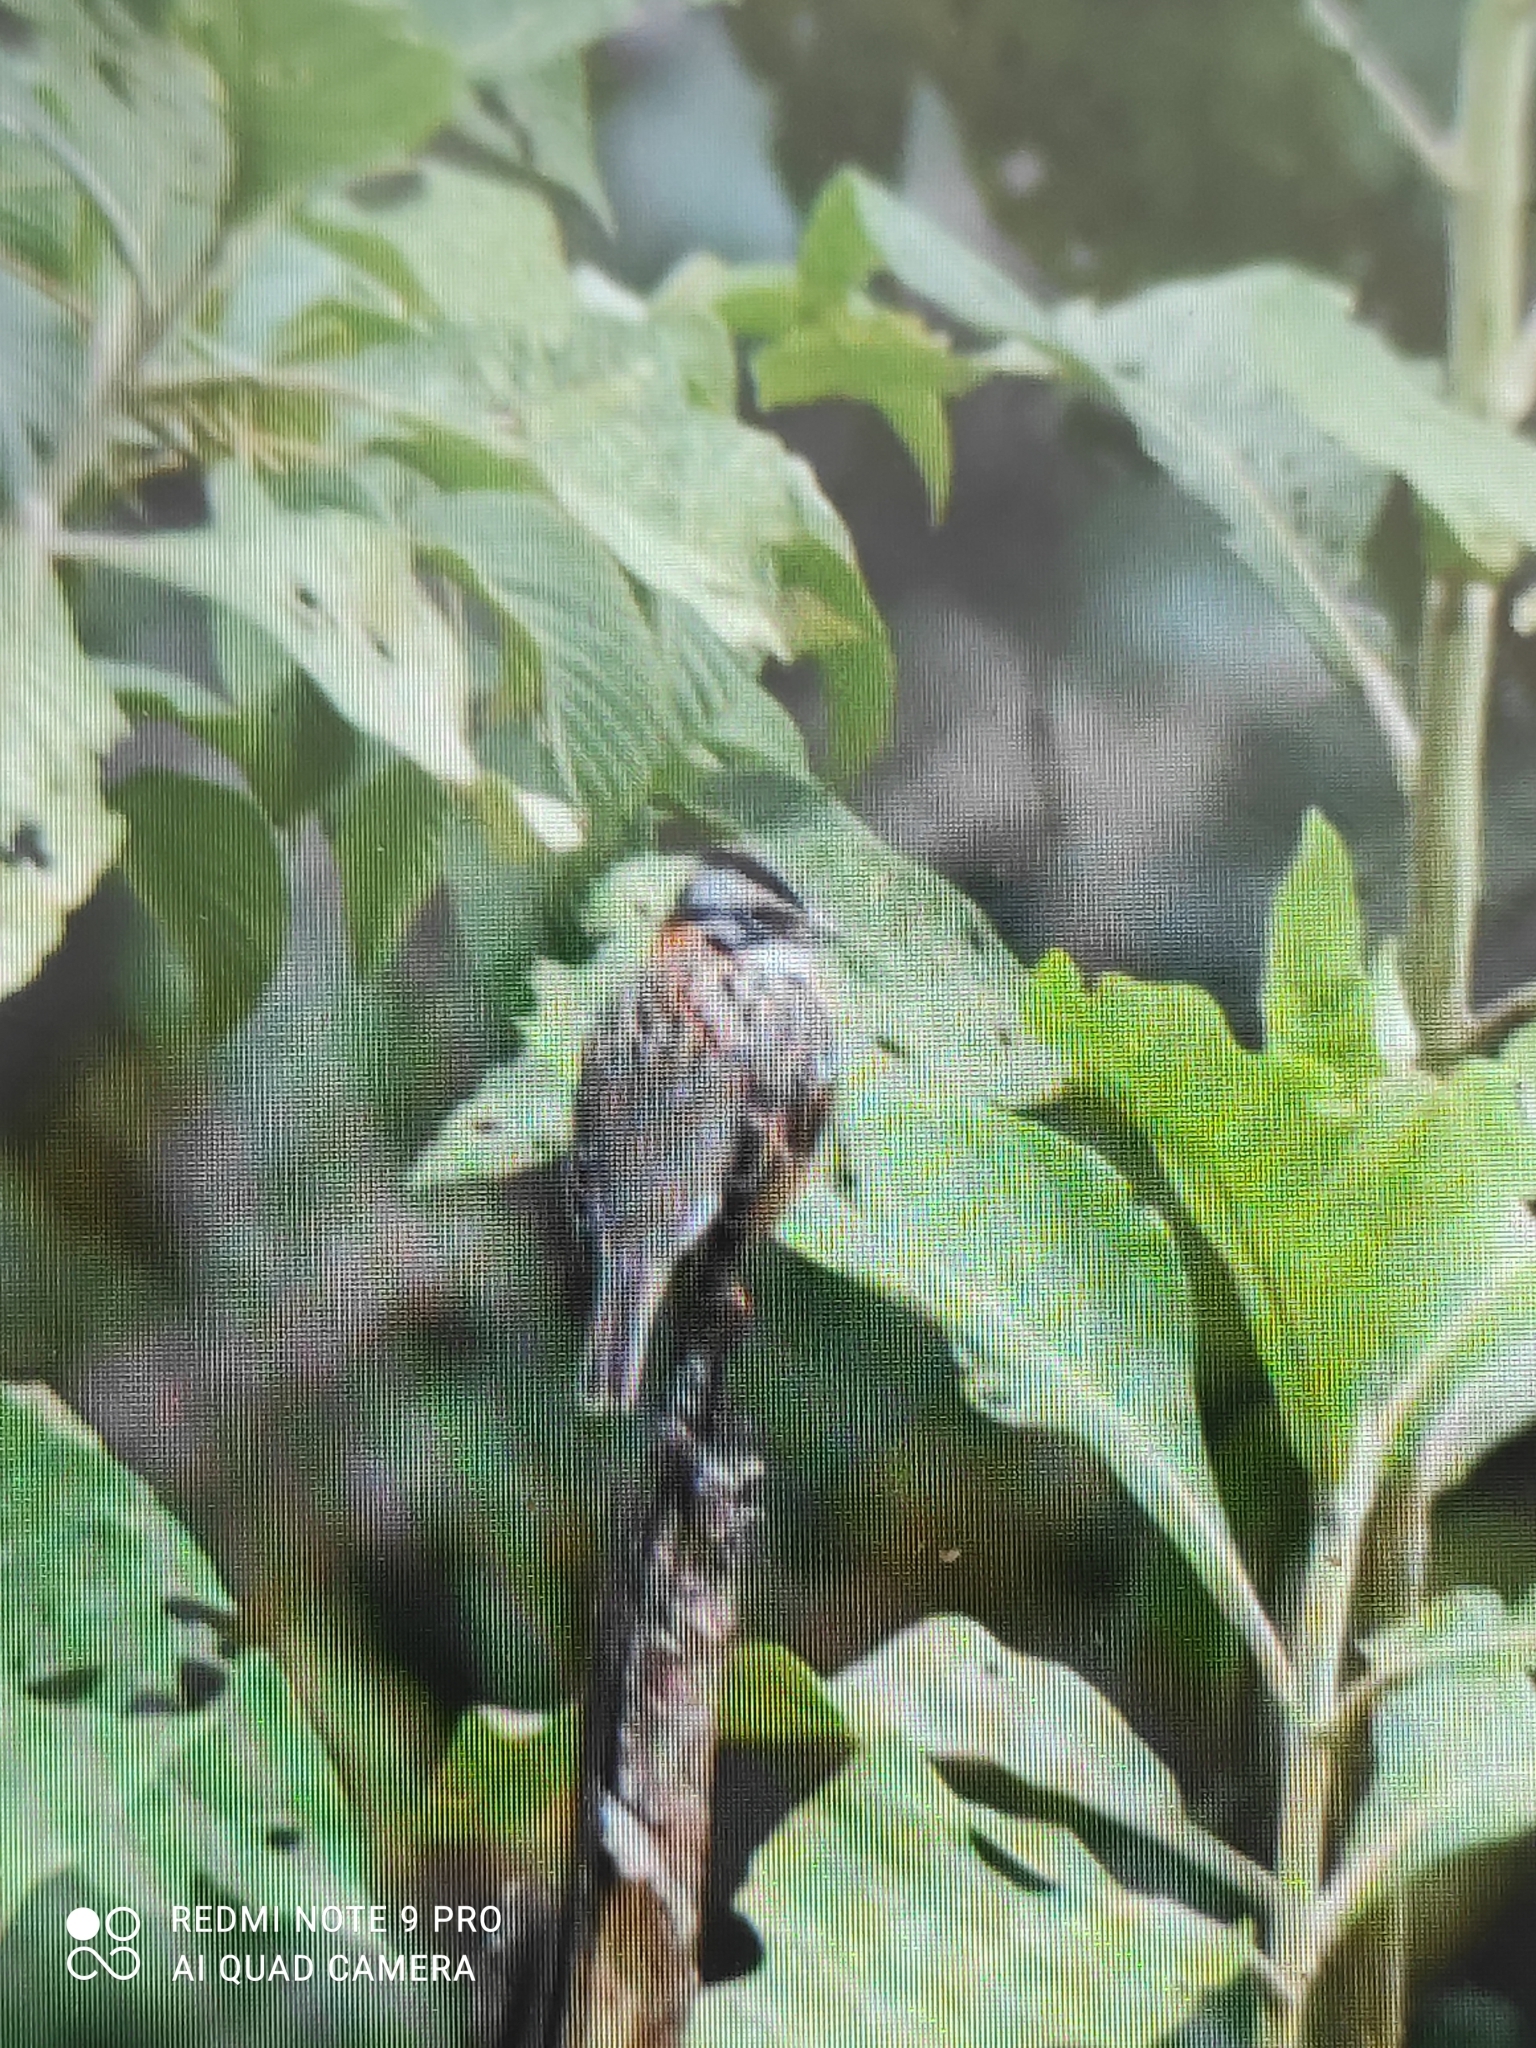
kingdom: Animalia
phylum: Chordata
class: Aves
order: Passeriformes
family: Passerellidae
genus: Zonotrichia
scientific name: Zonotrichia capensis
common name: Rufous-collared sparrow
